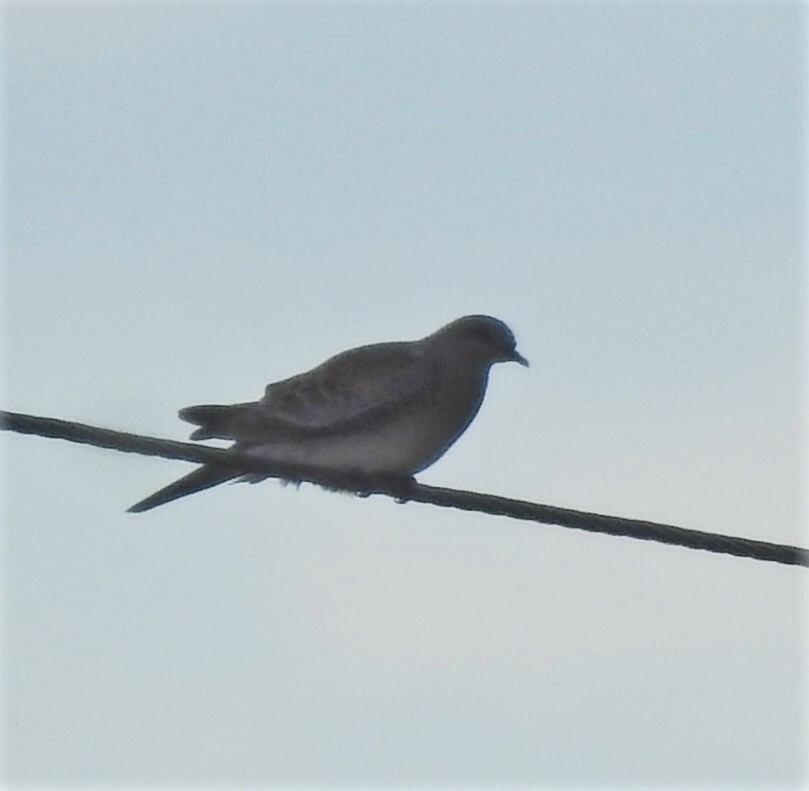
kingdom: Animalia
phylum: Chordata
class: Aves
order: Columbiformes
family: Columbidae
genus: Streptopelia
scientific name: Streptopelia orientalis
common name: Oriental turtle dove
